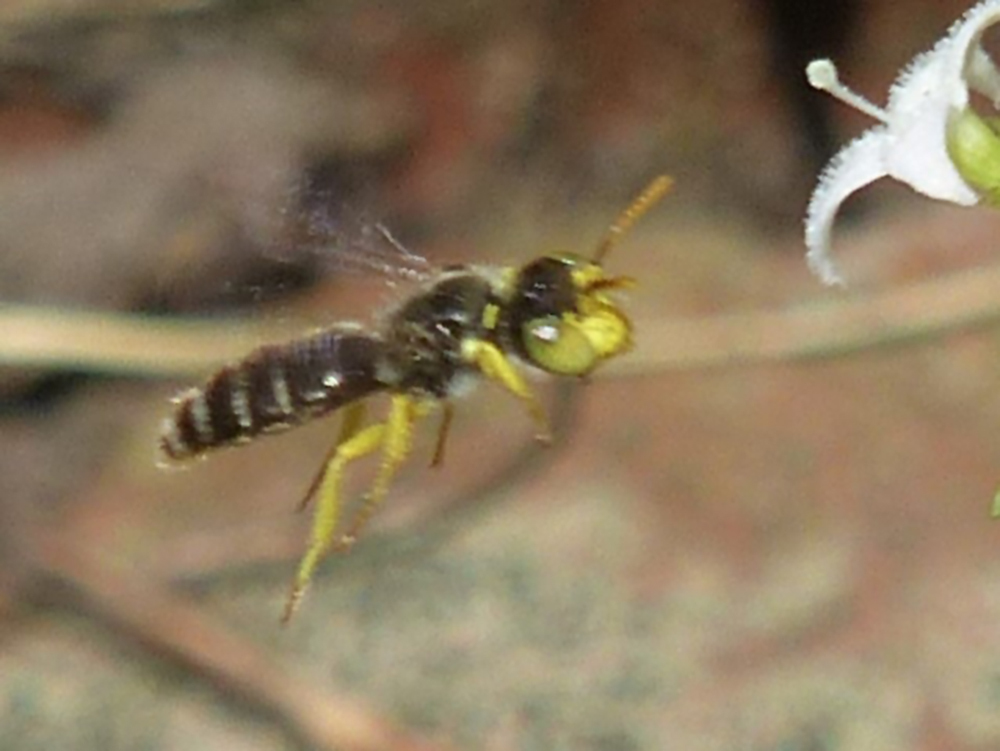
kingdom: Animalia
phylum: Arthropoda
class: Insecta
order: Hymenoptera
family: Andrenidae
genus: Calliopsis
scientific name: Calliopsis andreniformis
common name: Eastern calliopsis bee
